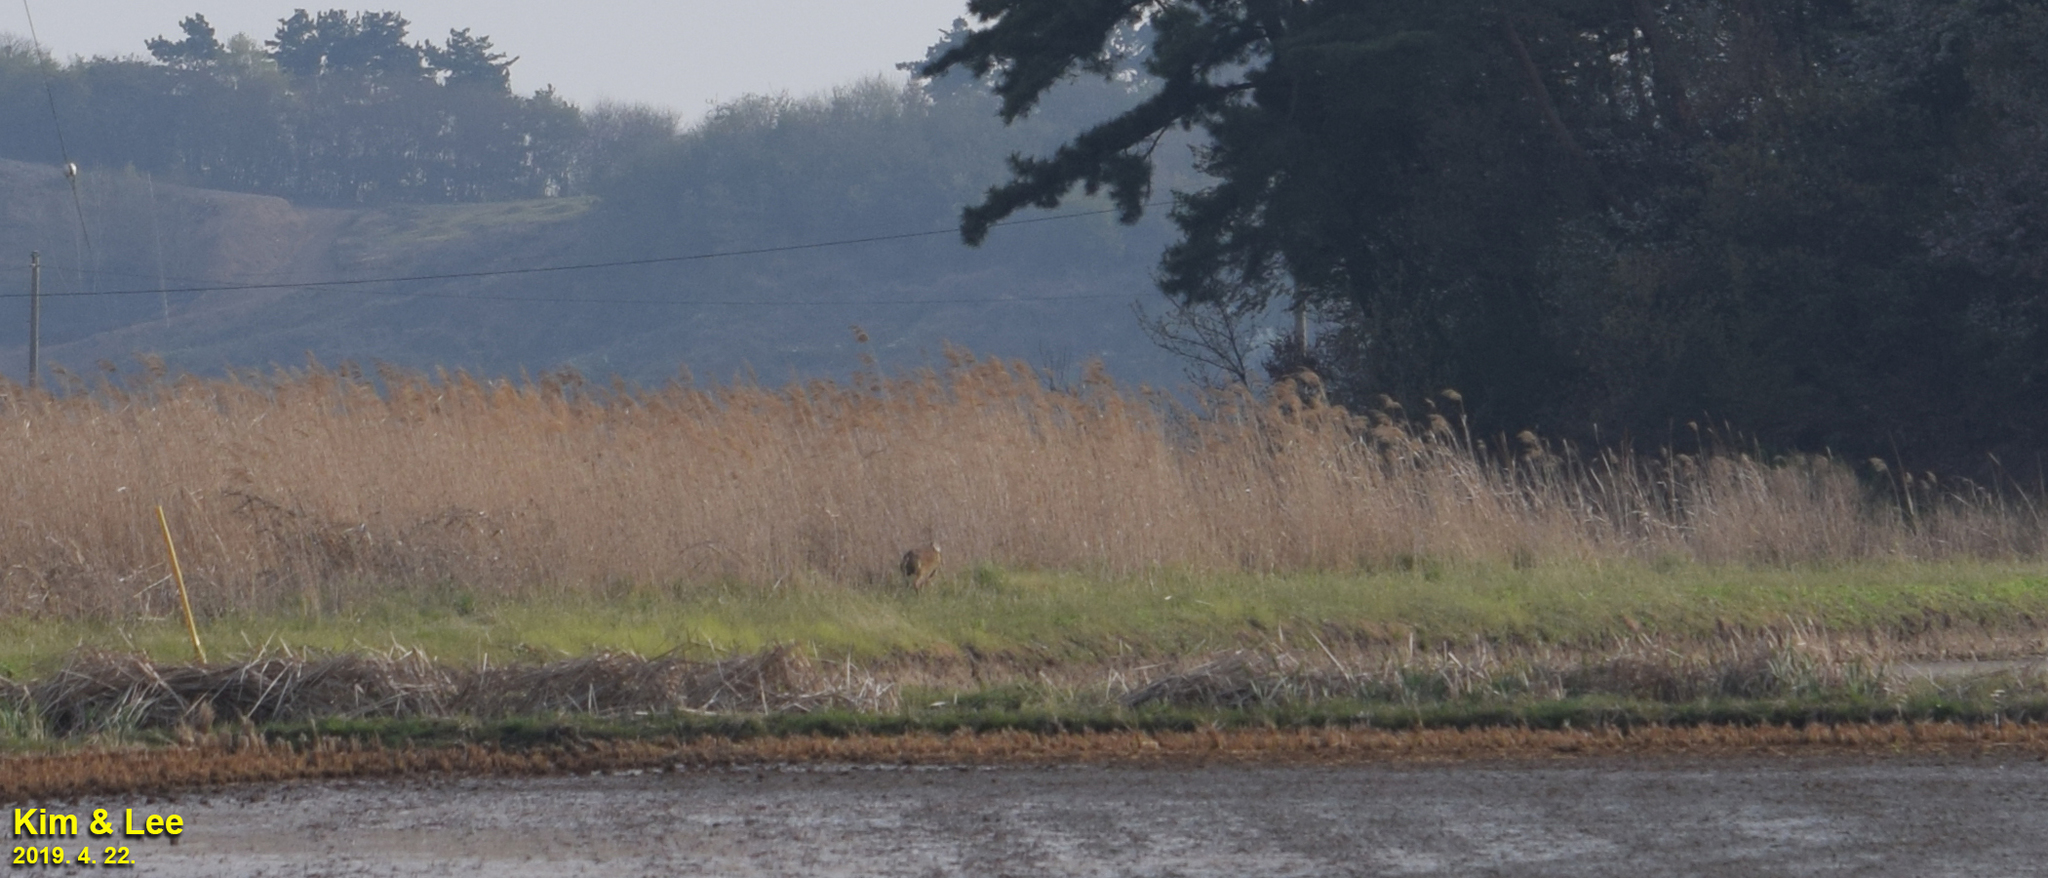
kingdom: Animalia
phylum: Chordata
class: Mammalia
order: Artiodactyla
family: Cervidae
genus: Hydropotes
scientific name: Hydropotes inermis
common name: Chinese water deer
